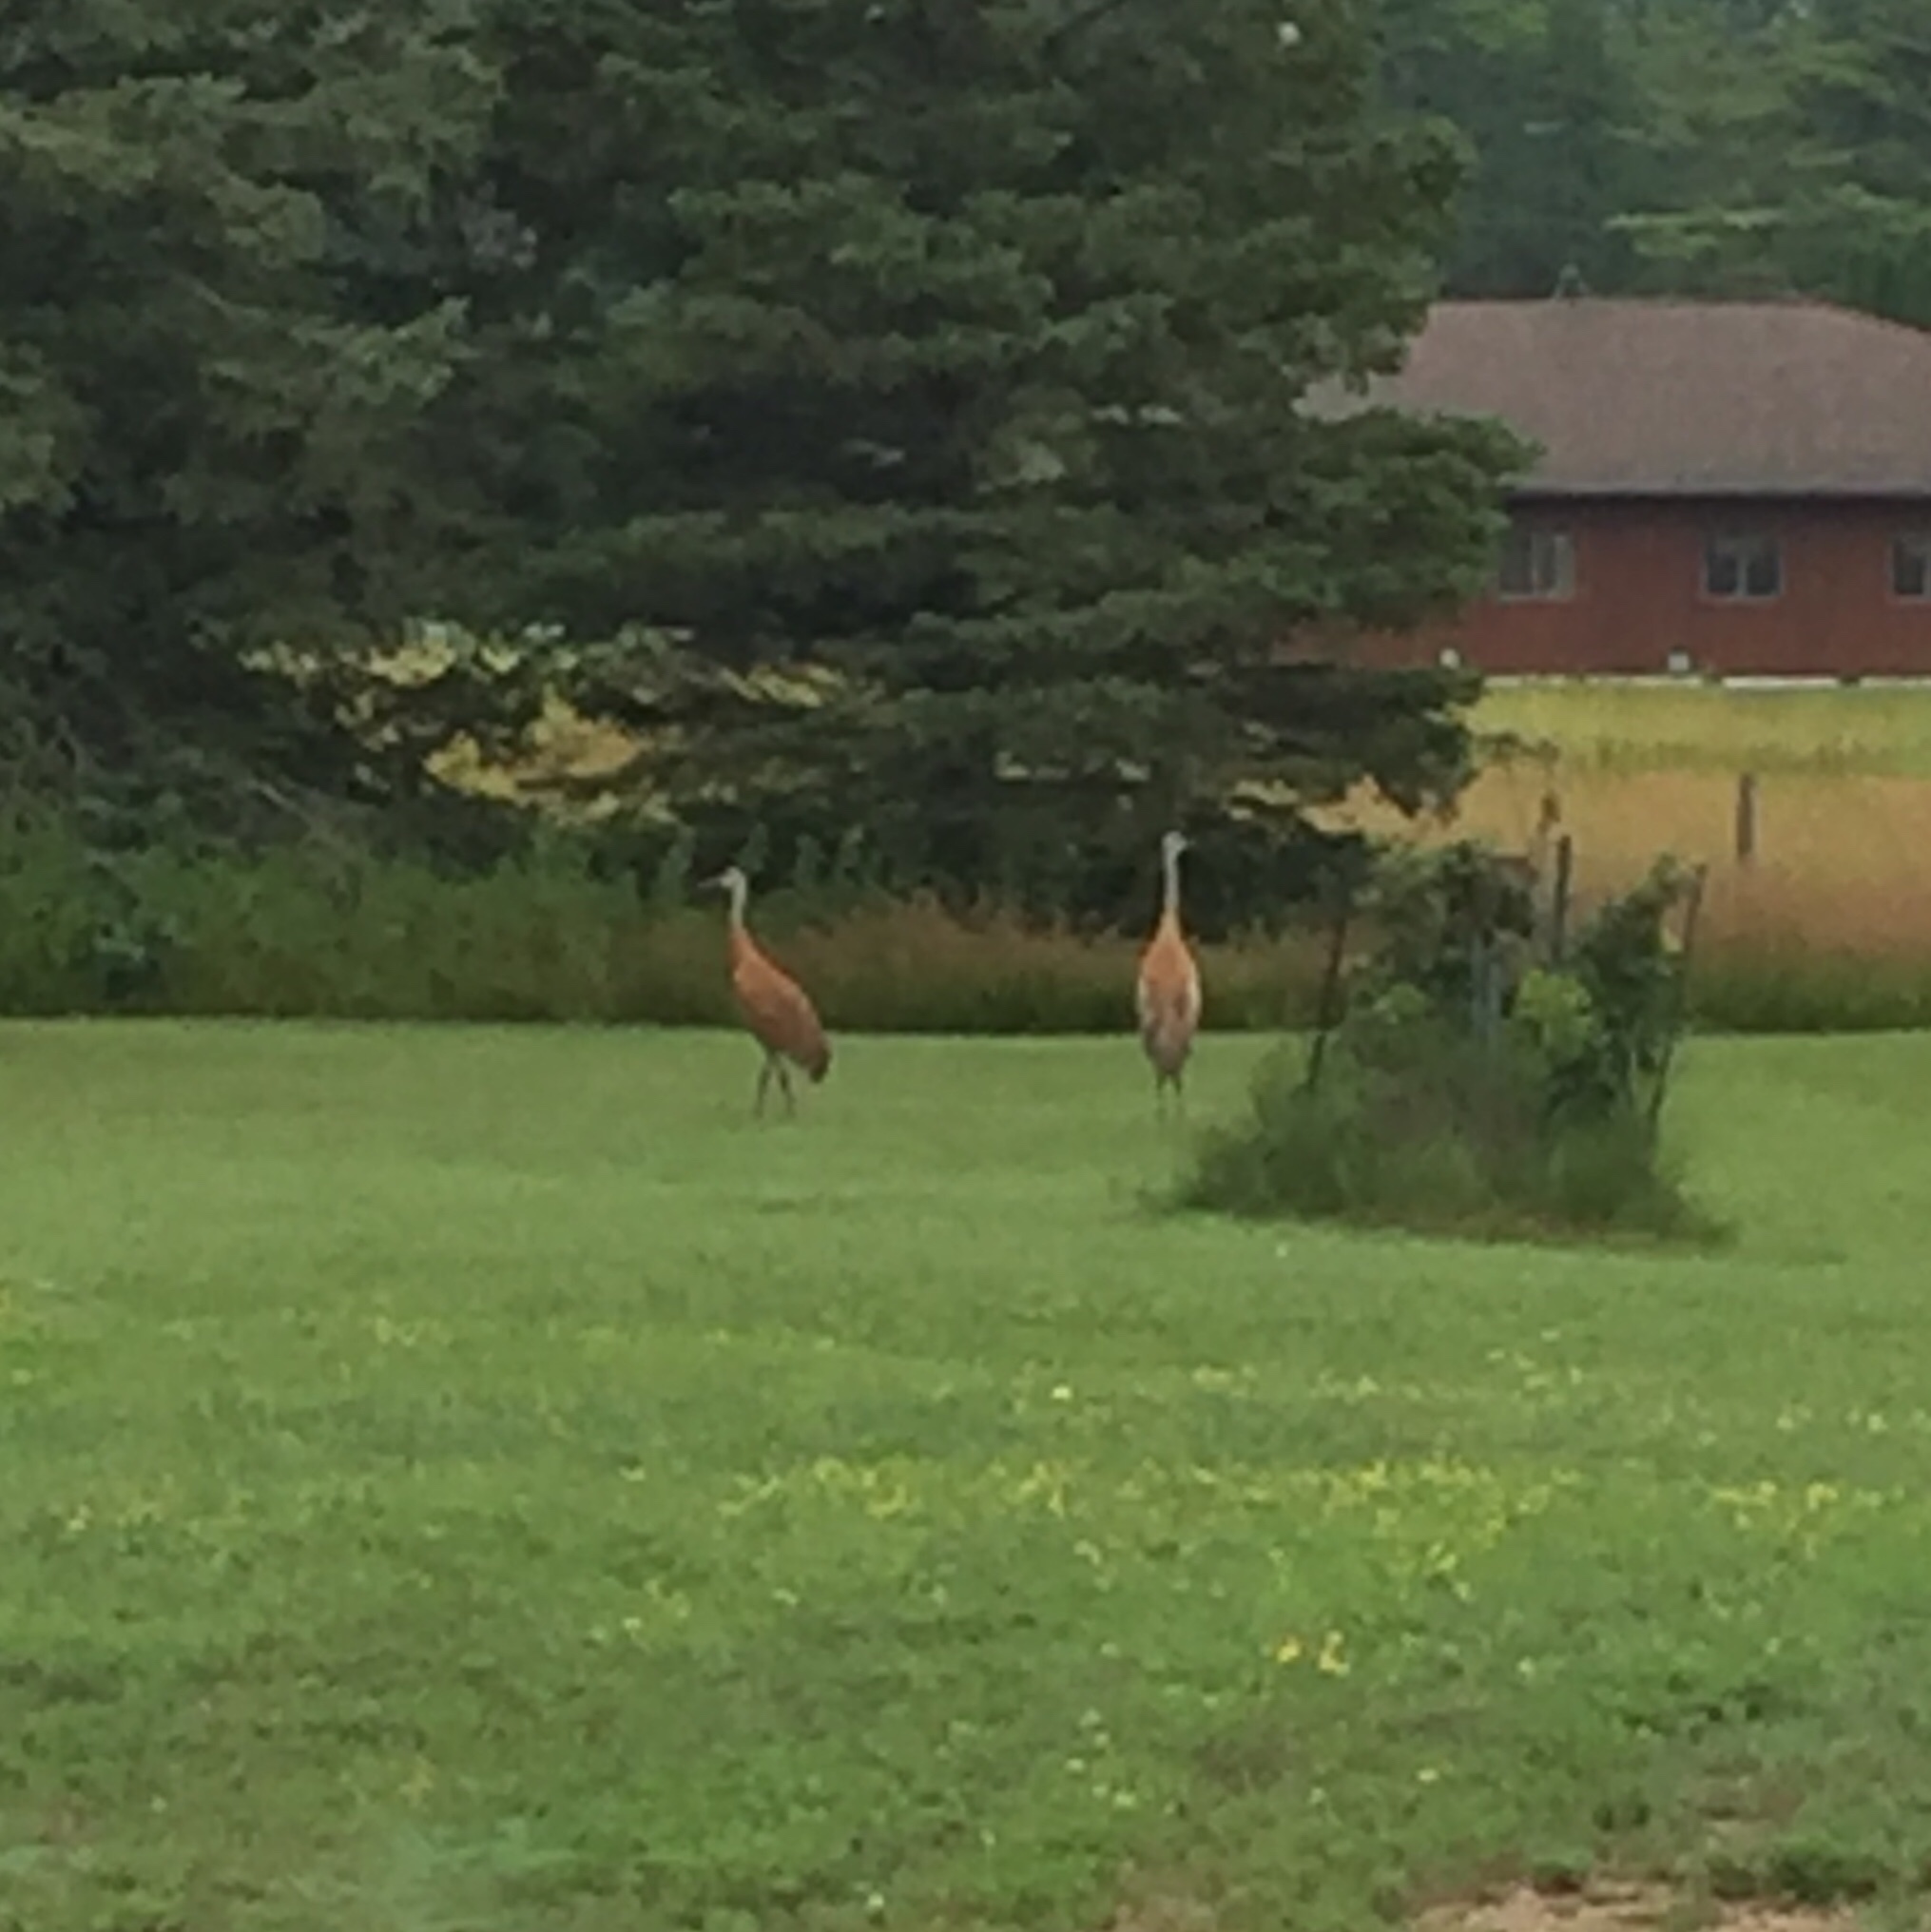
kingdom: Animalia
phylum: Chordata
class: Aves
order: Gruiformes
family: Gruidae
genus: Grus
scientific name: Grus canadensis
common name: Sandhill crane
